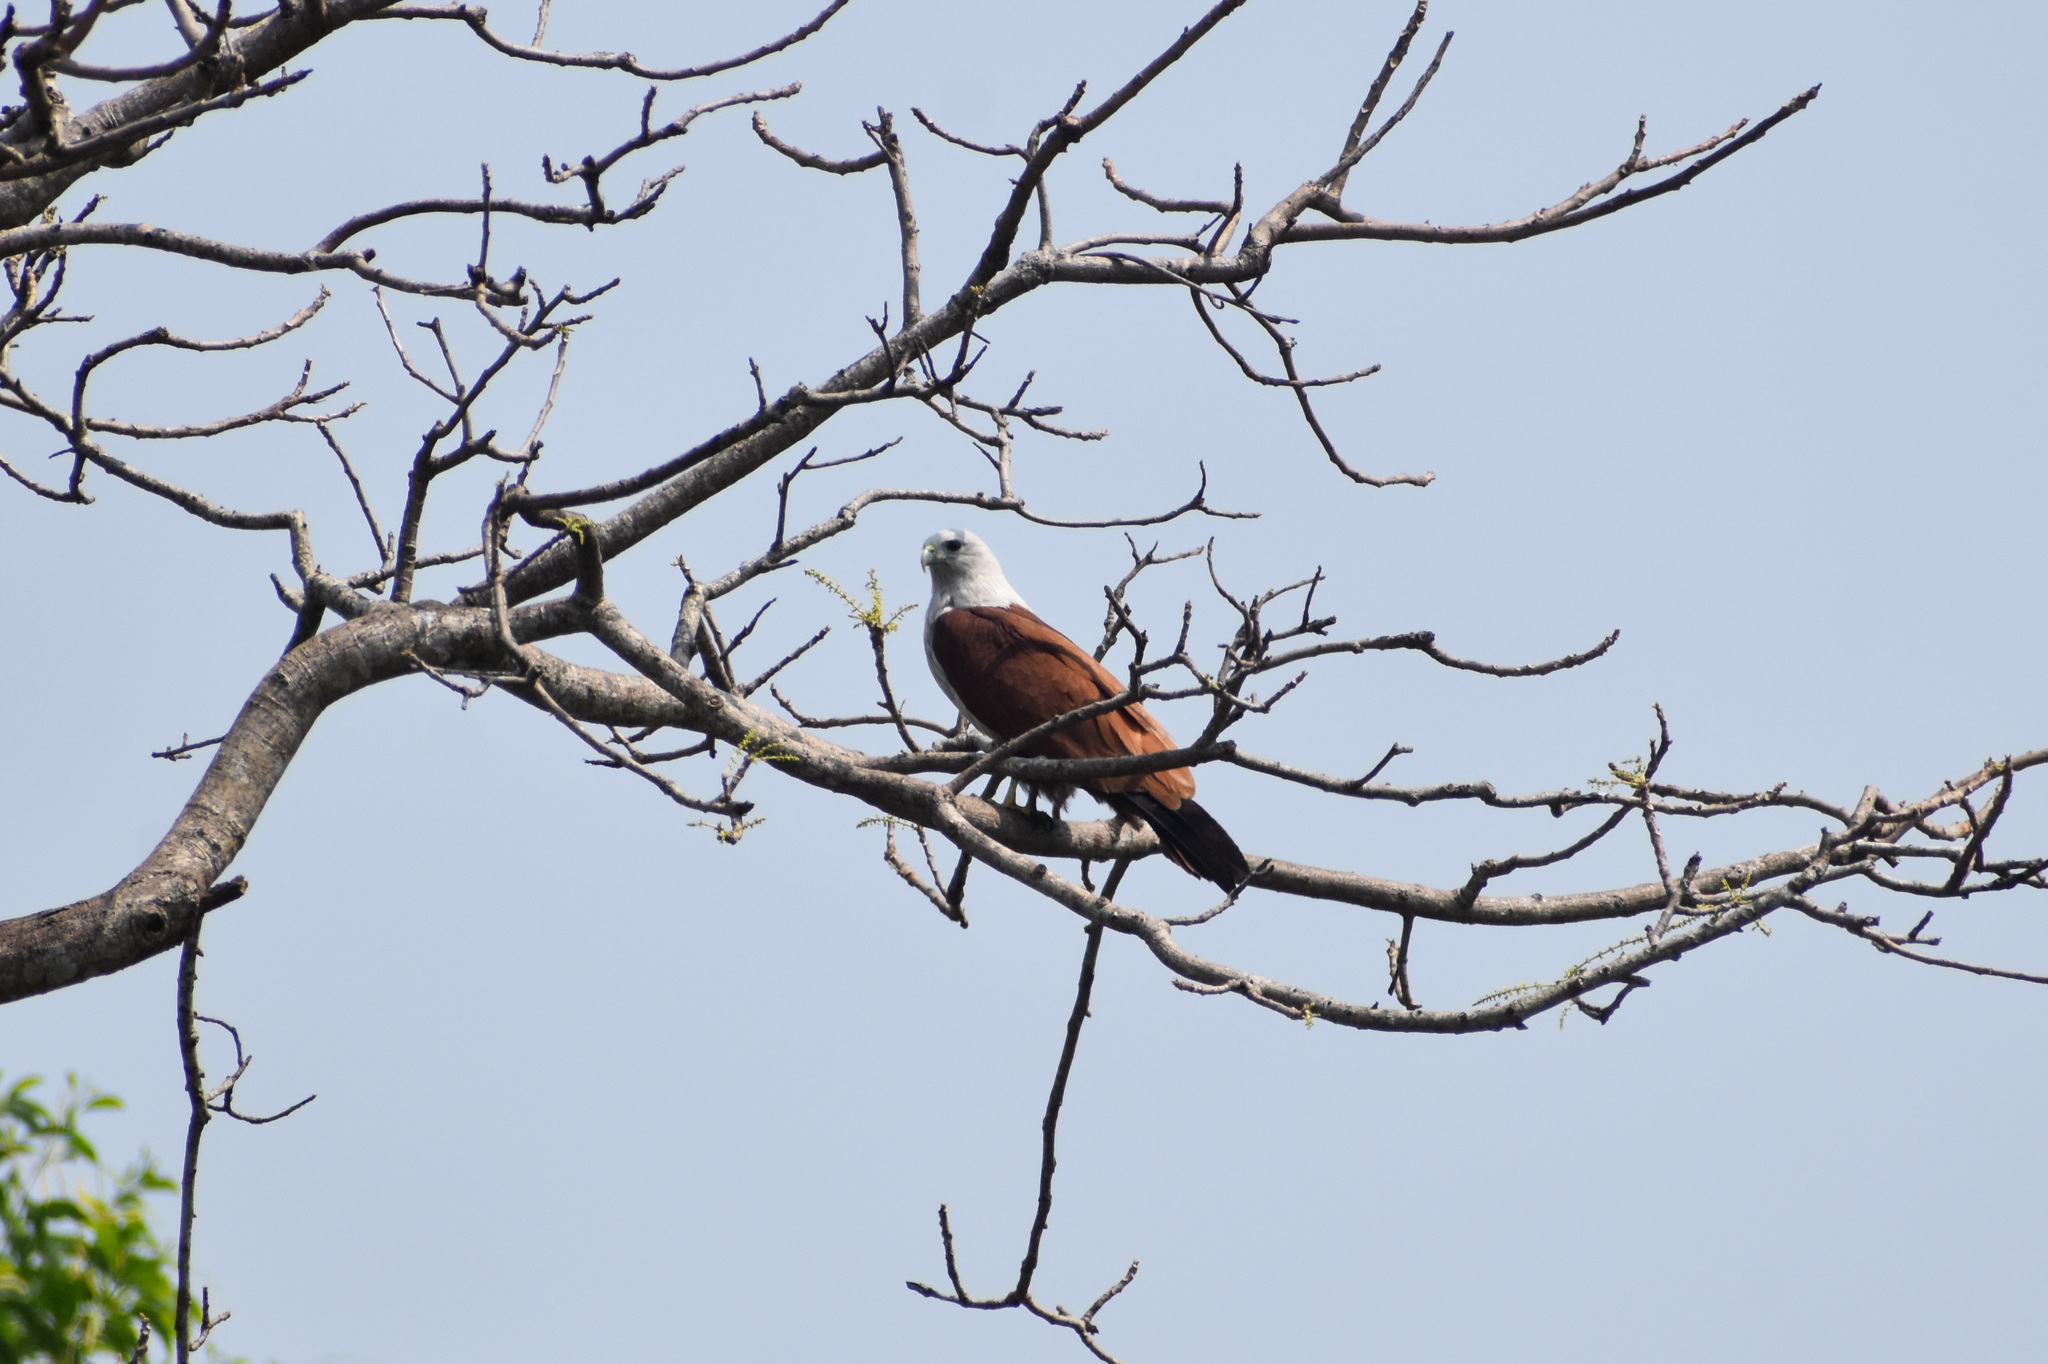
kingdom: Animalia
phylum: Chordata
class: Aves
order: Accipitriformes
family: Accipitridae
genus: Haliastur
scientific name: Haliastur indus
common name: Brahminy kite
